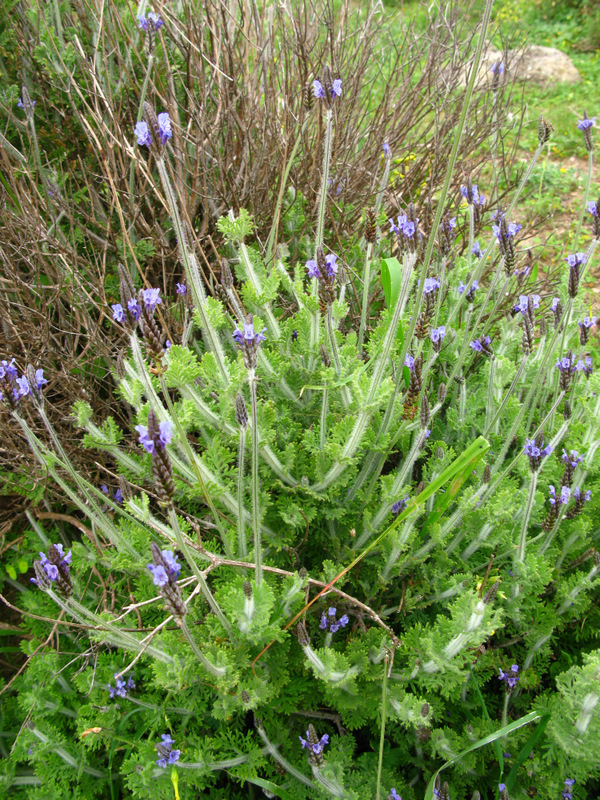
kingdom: Plantae
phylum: Tracheophyta
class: Magnoliopsida
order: Lamiales
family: Lamiaceae
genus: Lavandula
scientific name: Lavandula multifida
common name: Fern-leaf lavender
